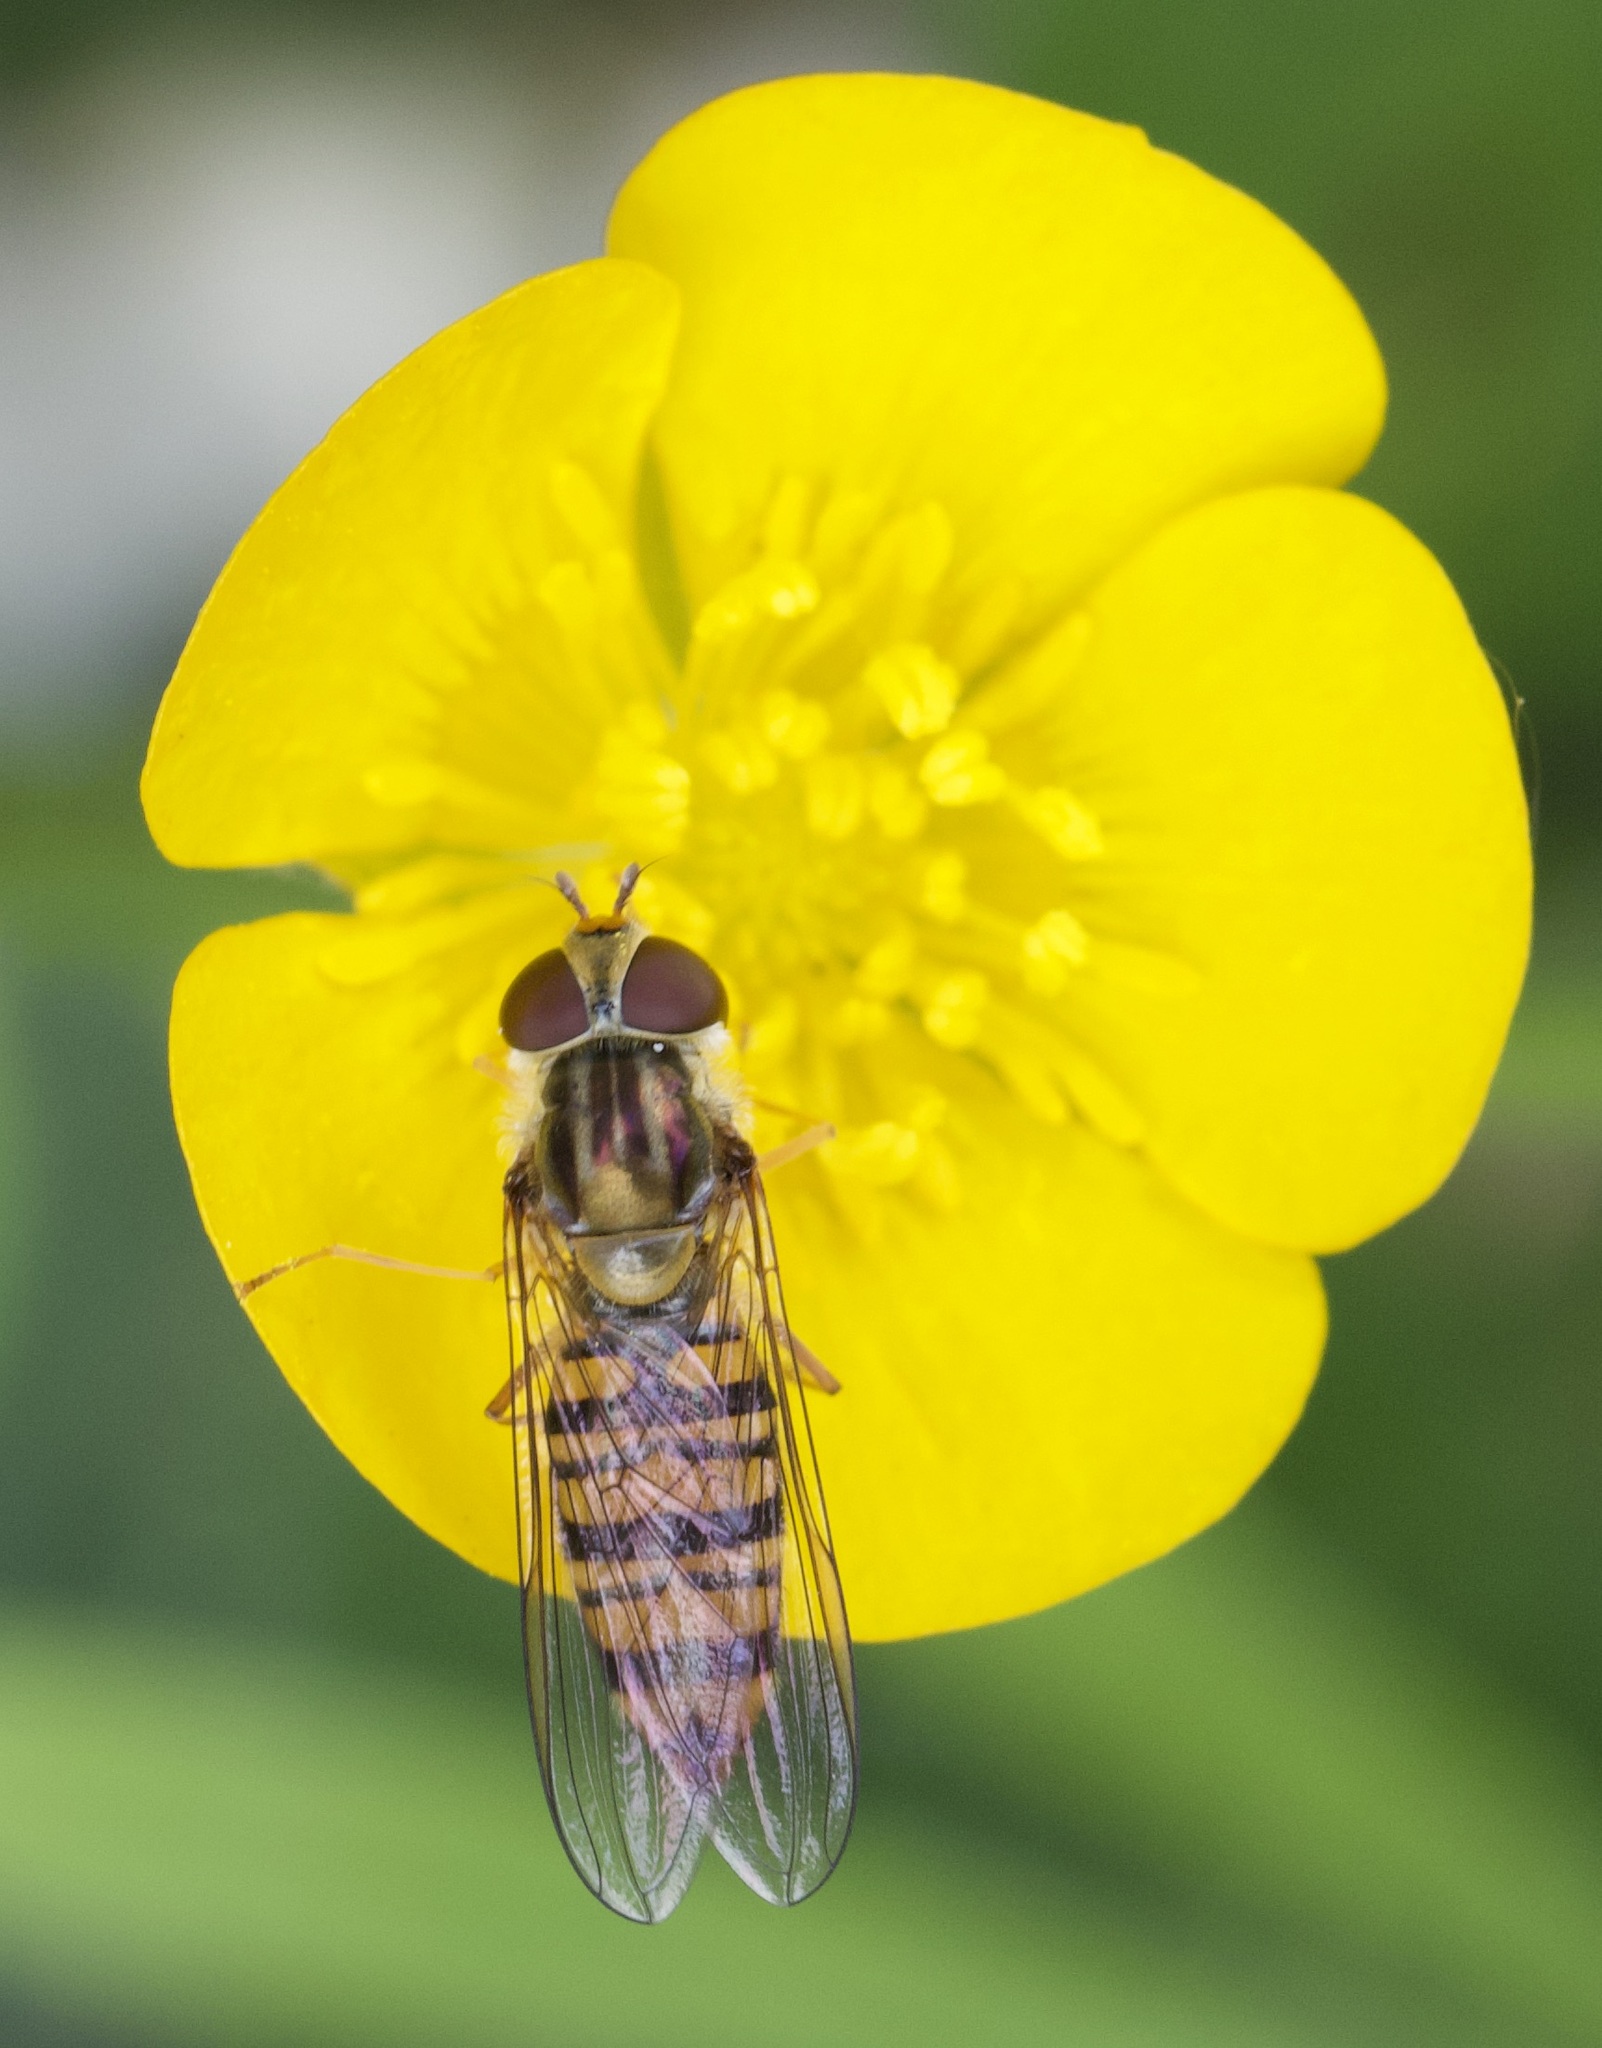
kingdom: Animalia
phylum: Arthropoda
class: Insecta
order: Diptera
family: Syrphidae
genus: Episyrphus
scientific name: Episyrphus balteatus
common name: Marmalade hoverfly
